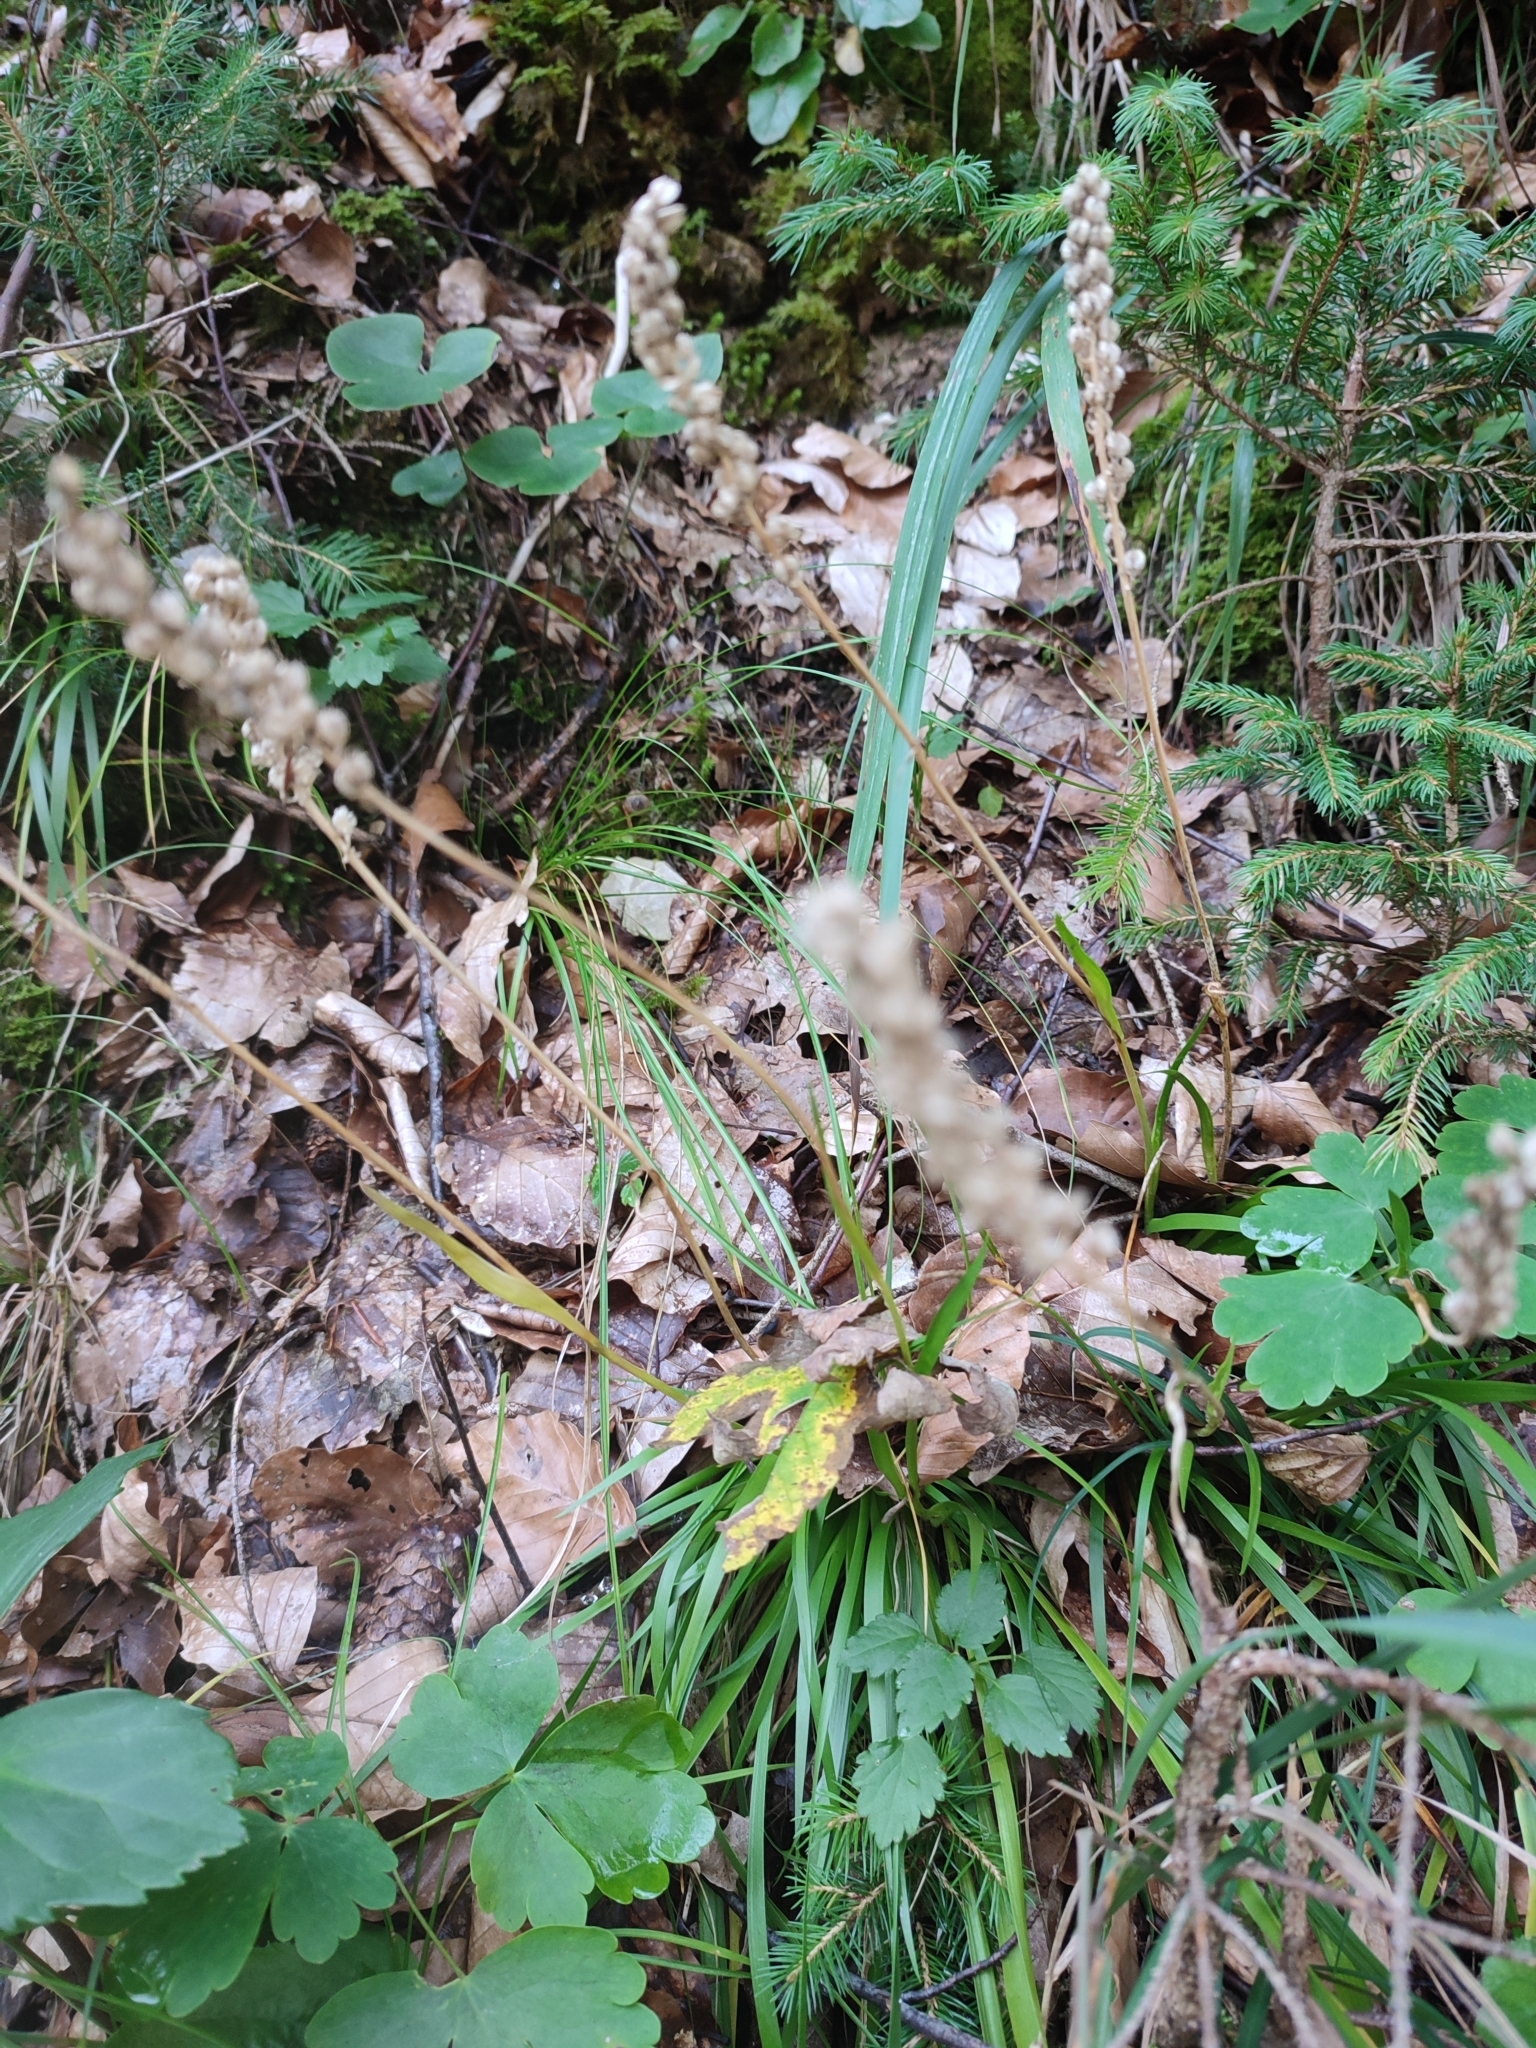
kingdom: Plantae
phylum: Tracheophyta
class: Liliopsida
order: Alismatales
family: Tofieldiaceae
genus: Tofieldia
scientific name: Tofieldia calyculata
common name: German-asphodel
